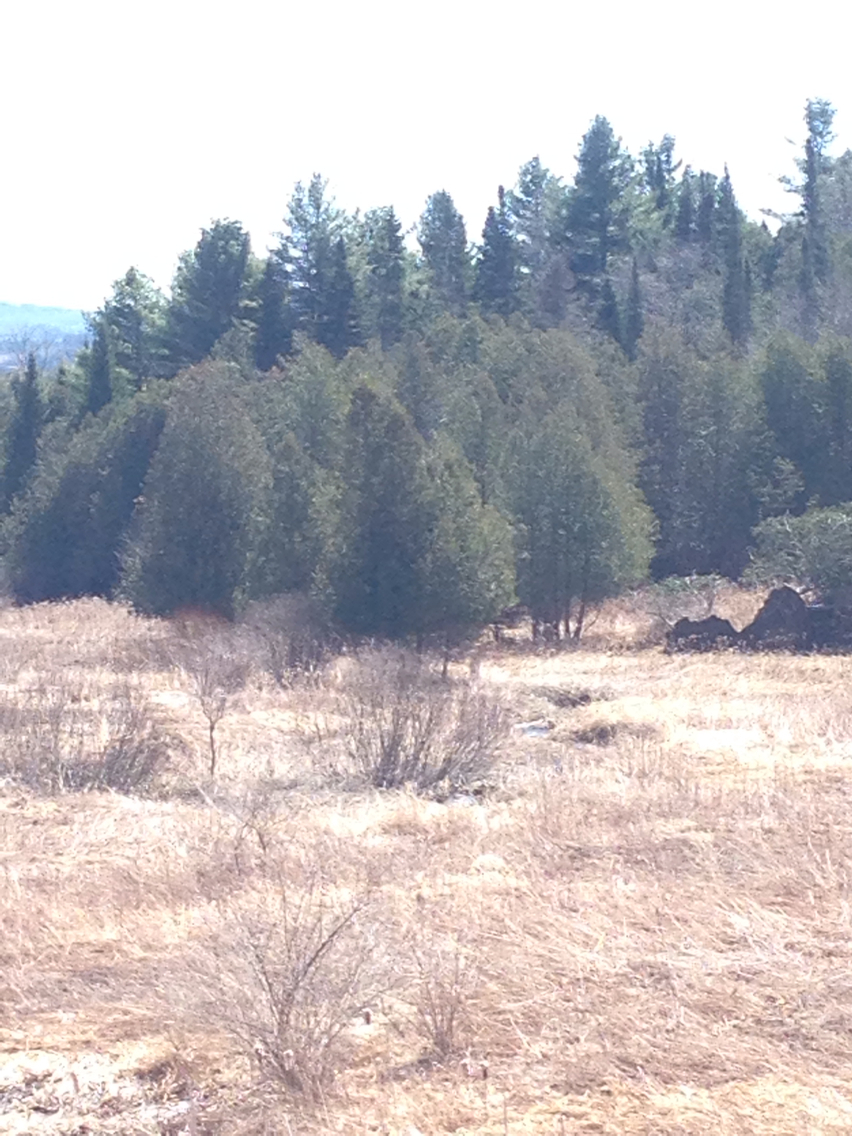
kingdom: Plantae
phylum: Tracheophyta
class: Pinopsida
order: Pinales
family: Cupressaceae
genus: Thuja
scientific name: Thuja occidentalis
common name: Northern white-cedar
